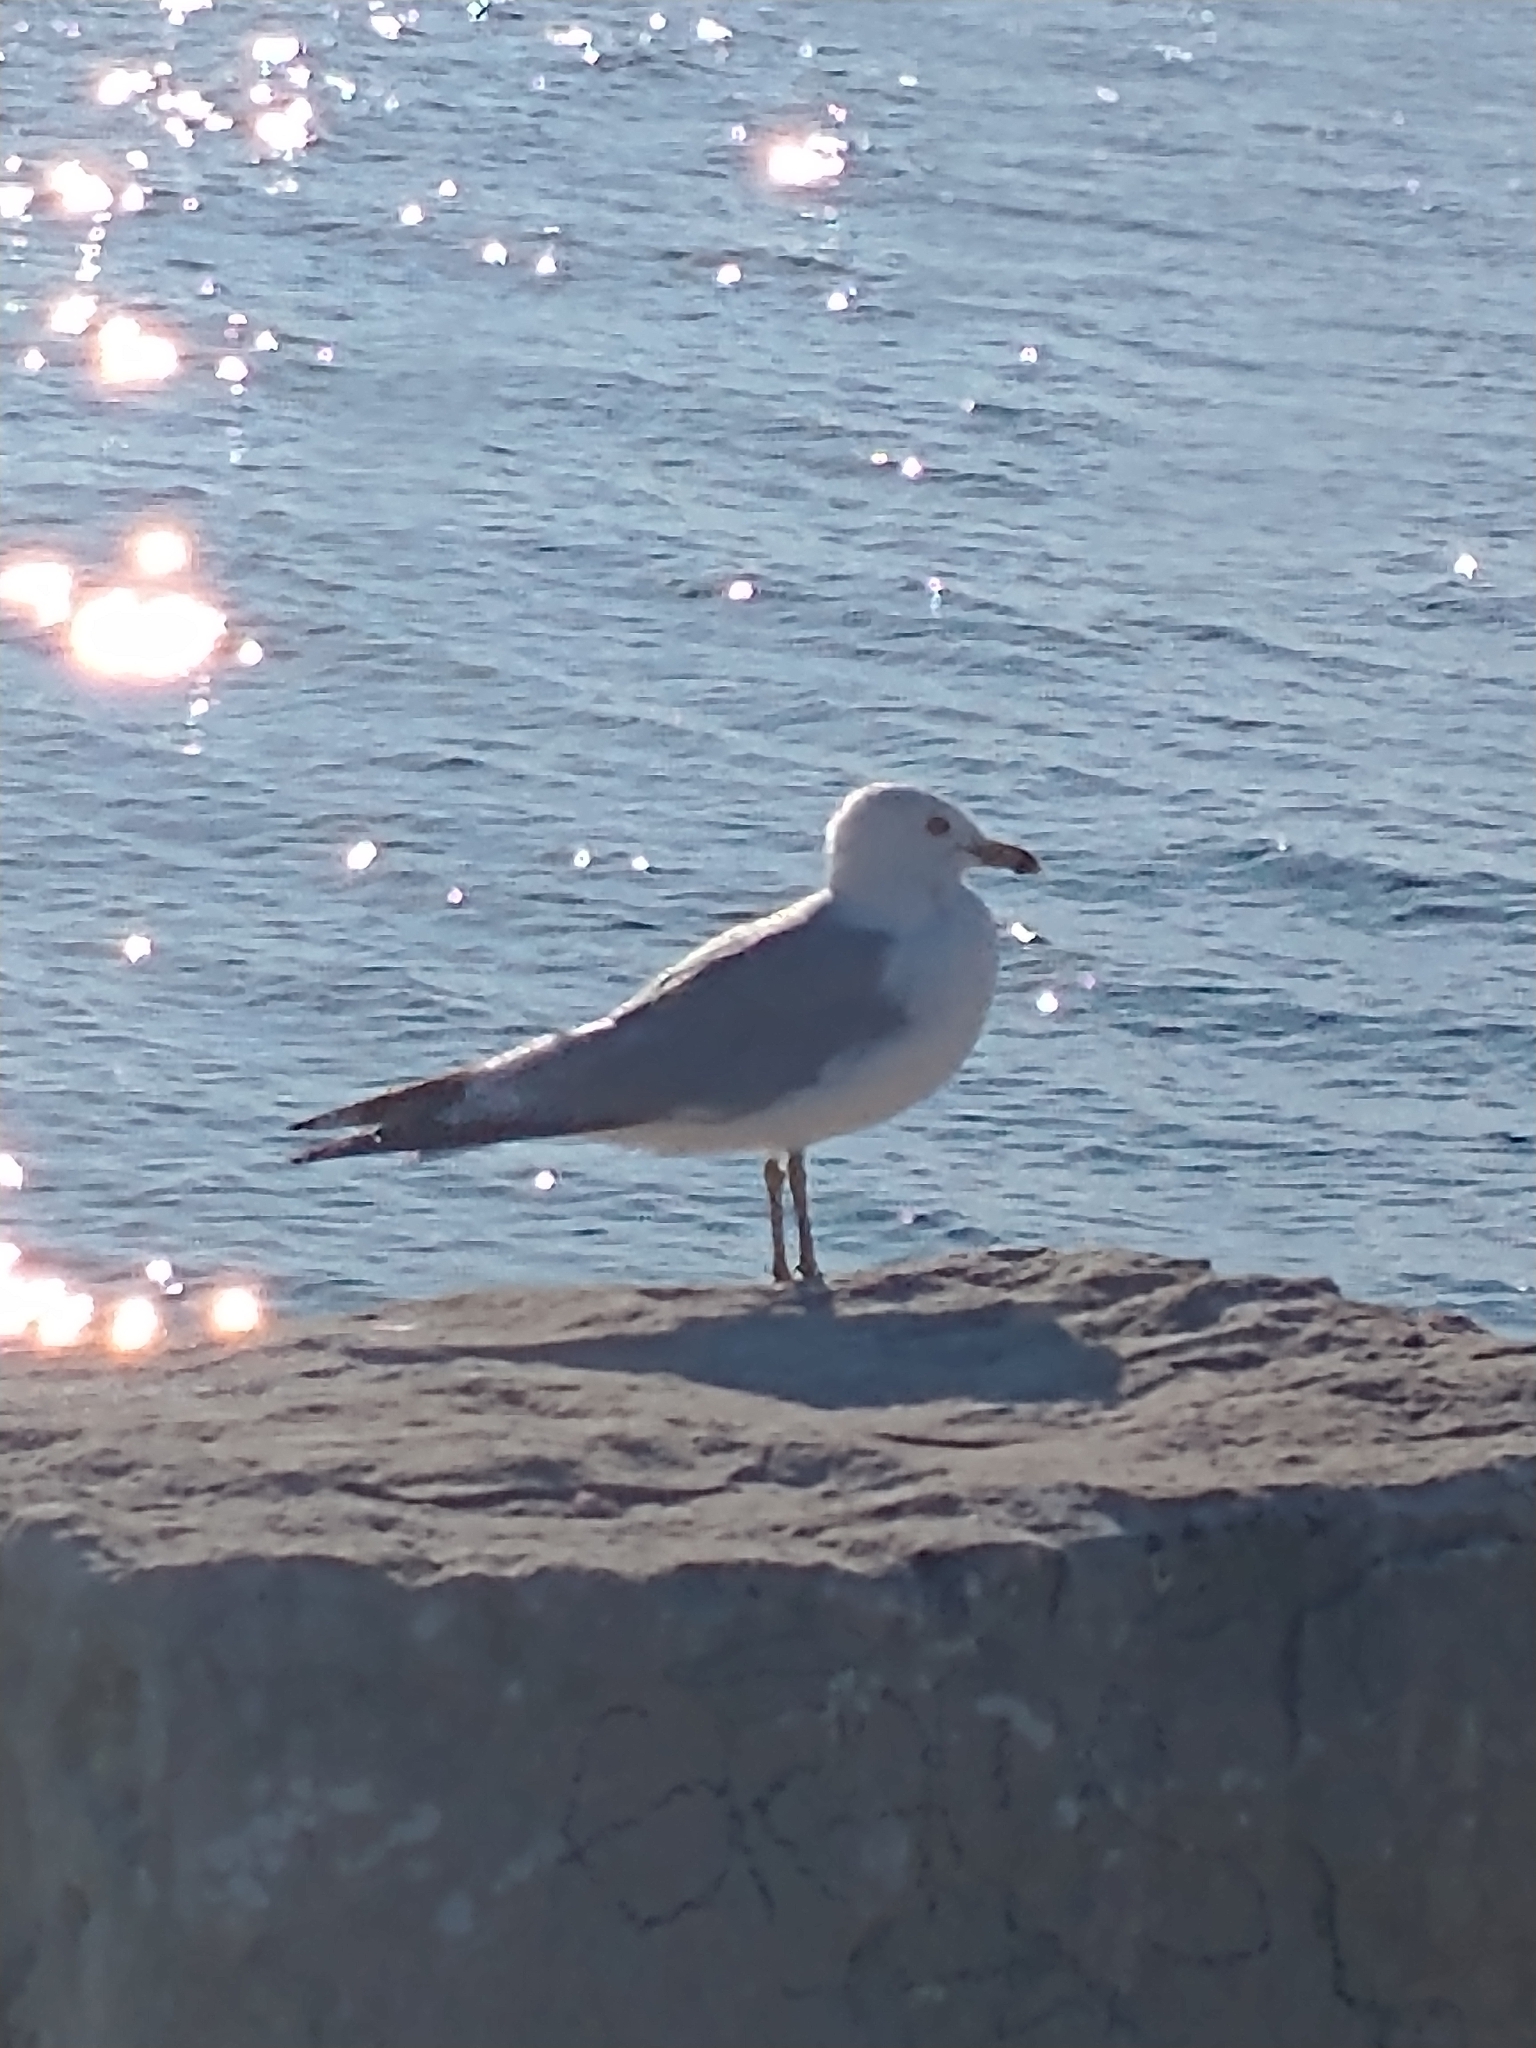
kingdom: Animalia
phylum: Chordata
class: Aves
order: Charadriiformes
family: Laridae
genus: Larus
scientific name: Larus delawarensis
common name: Ring-billed gull
